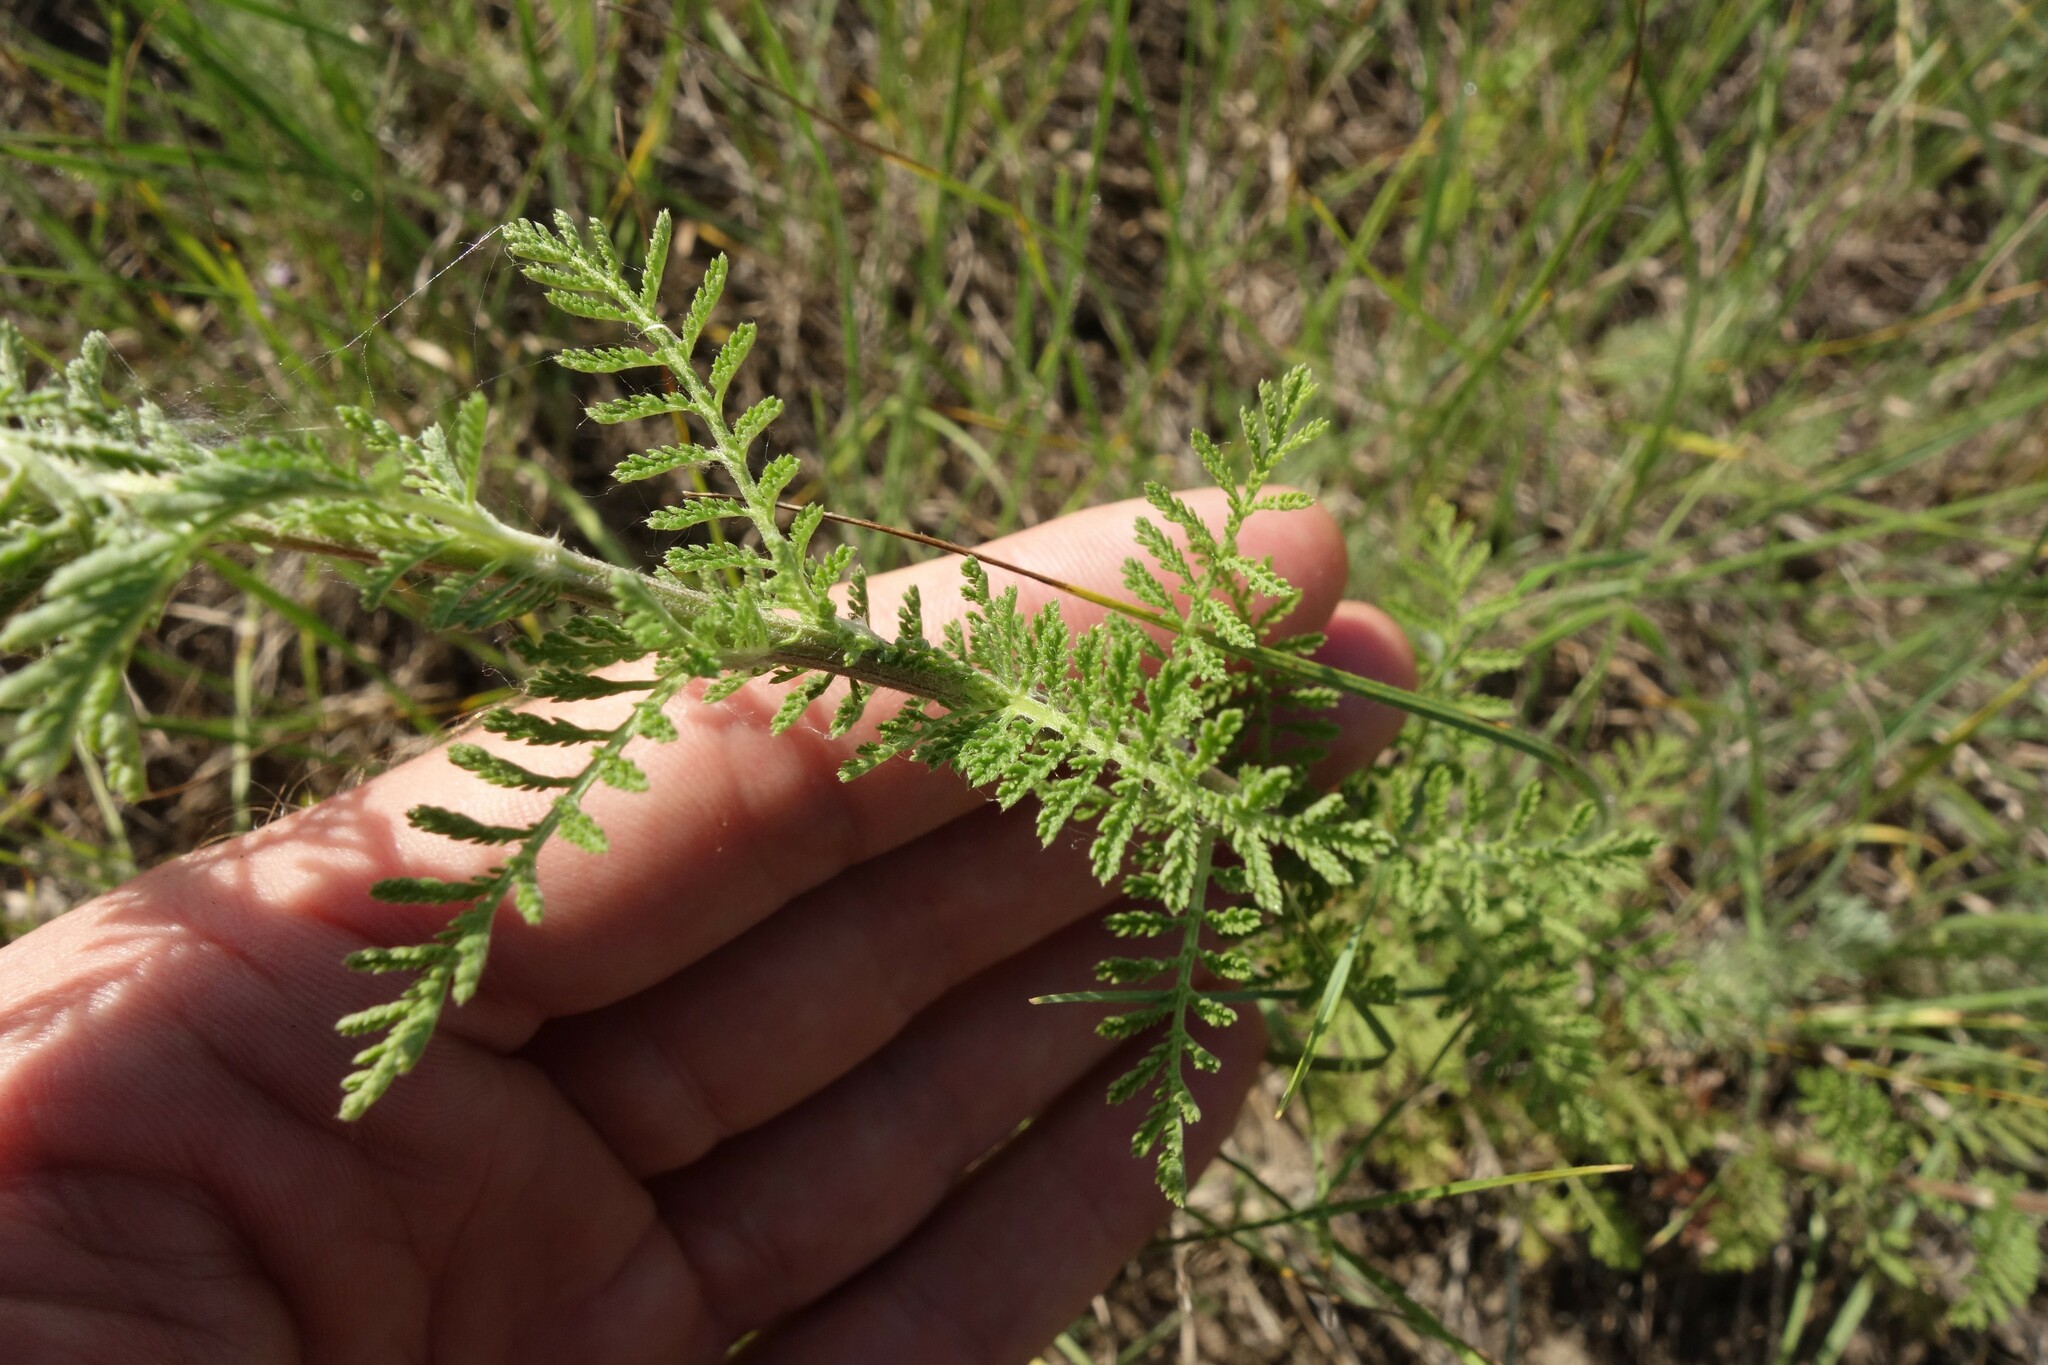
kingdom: Plantae
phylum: Tracheophyta
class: Magnoliopsida
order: Asterales
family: Asteraceae
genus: Achillea
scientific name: Achillea nobilis
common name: Noble yarrow
